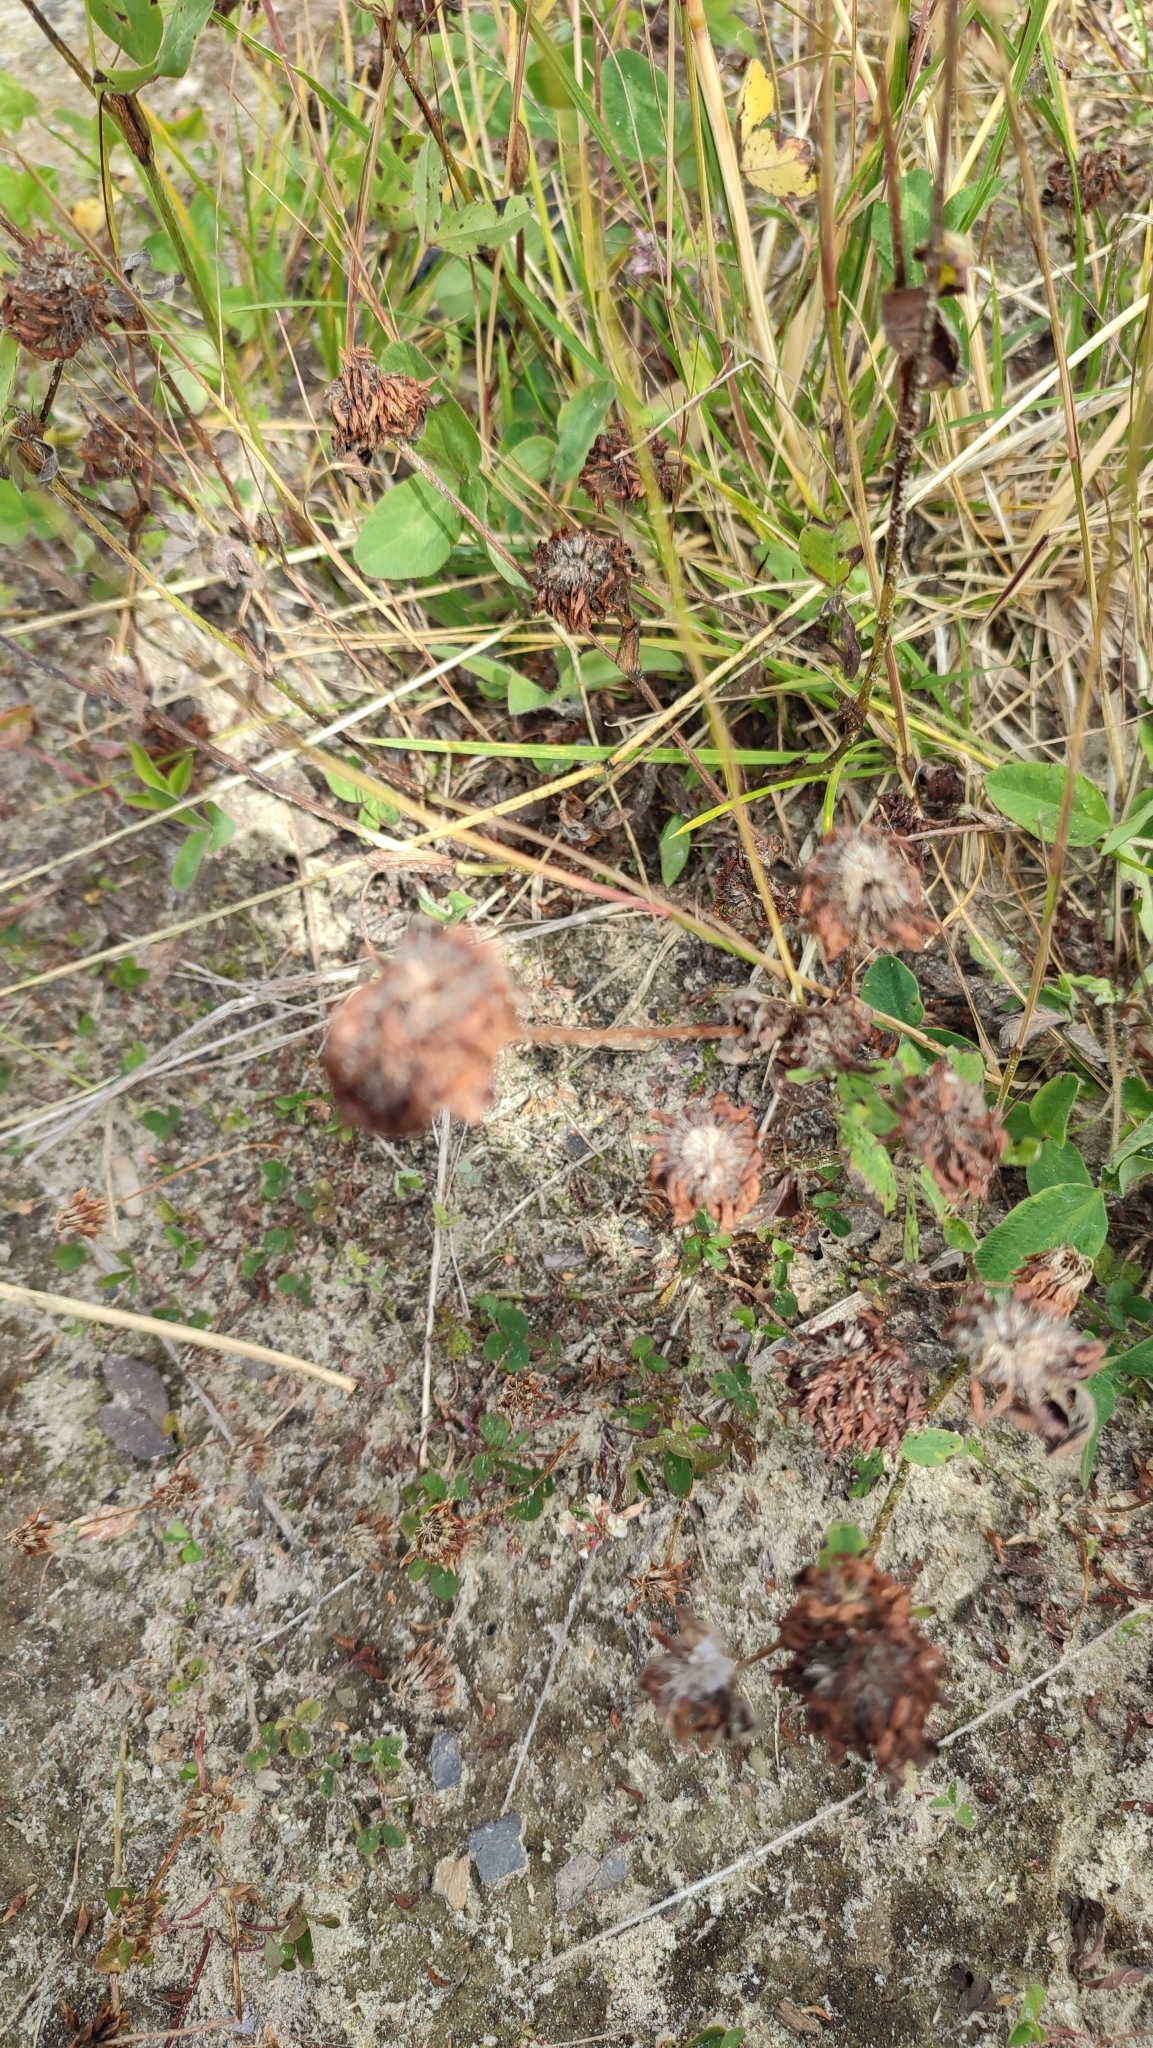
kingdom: Plantae
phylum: Tracheophyta
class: Magnoliopsida
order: Fabales
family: Fabaceae
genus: Trifolium
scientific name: Trifolium pratense
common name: Red clover
